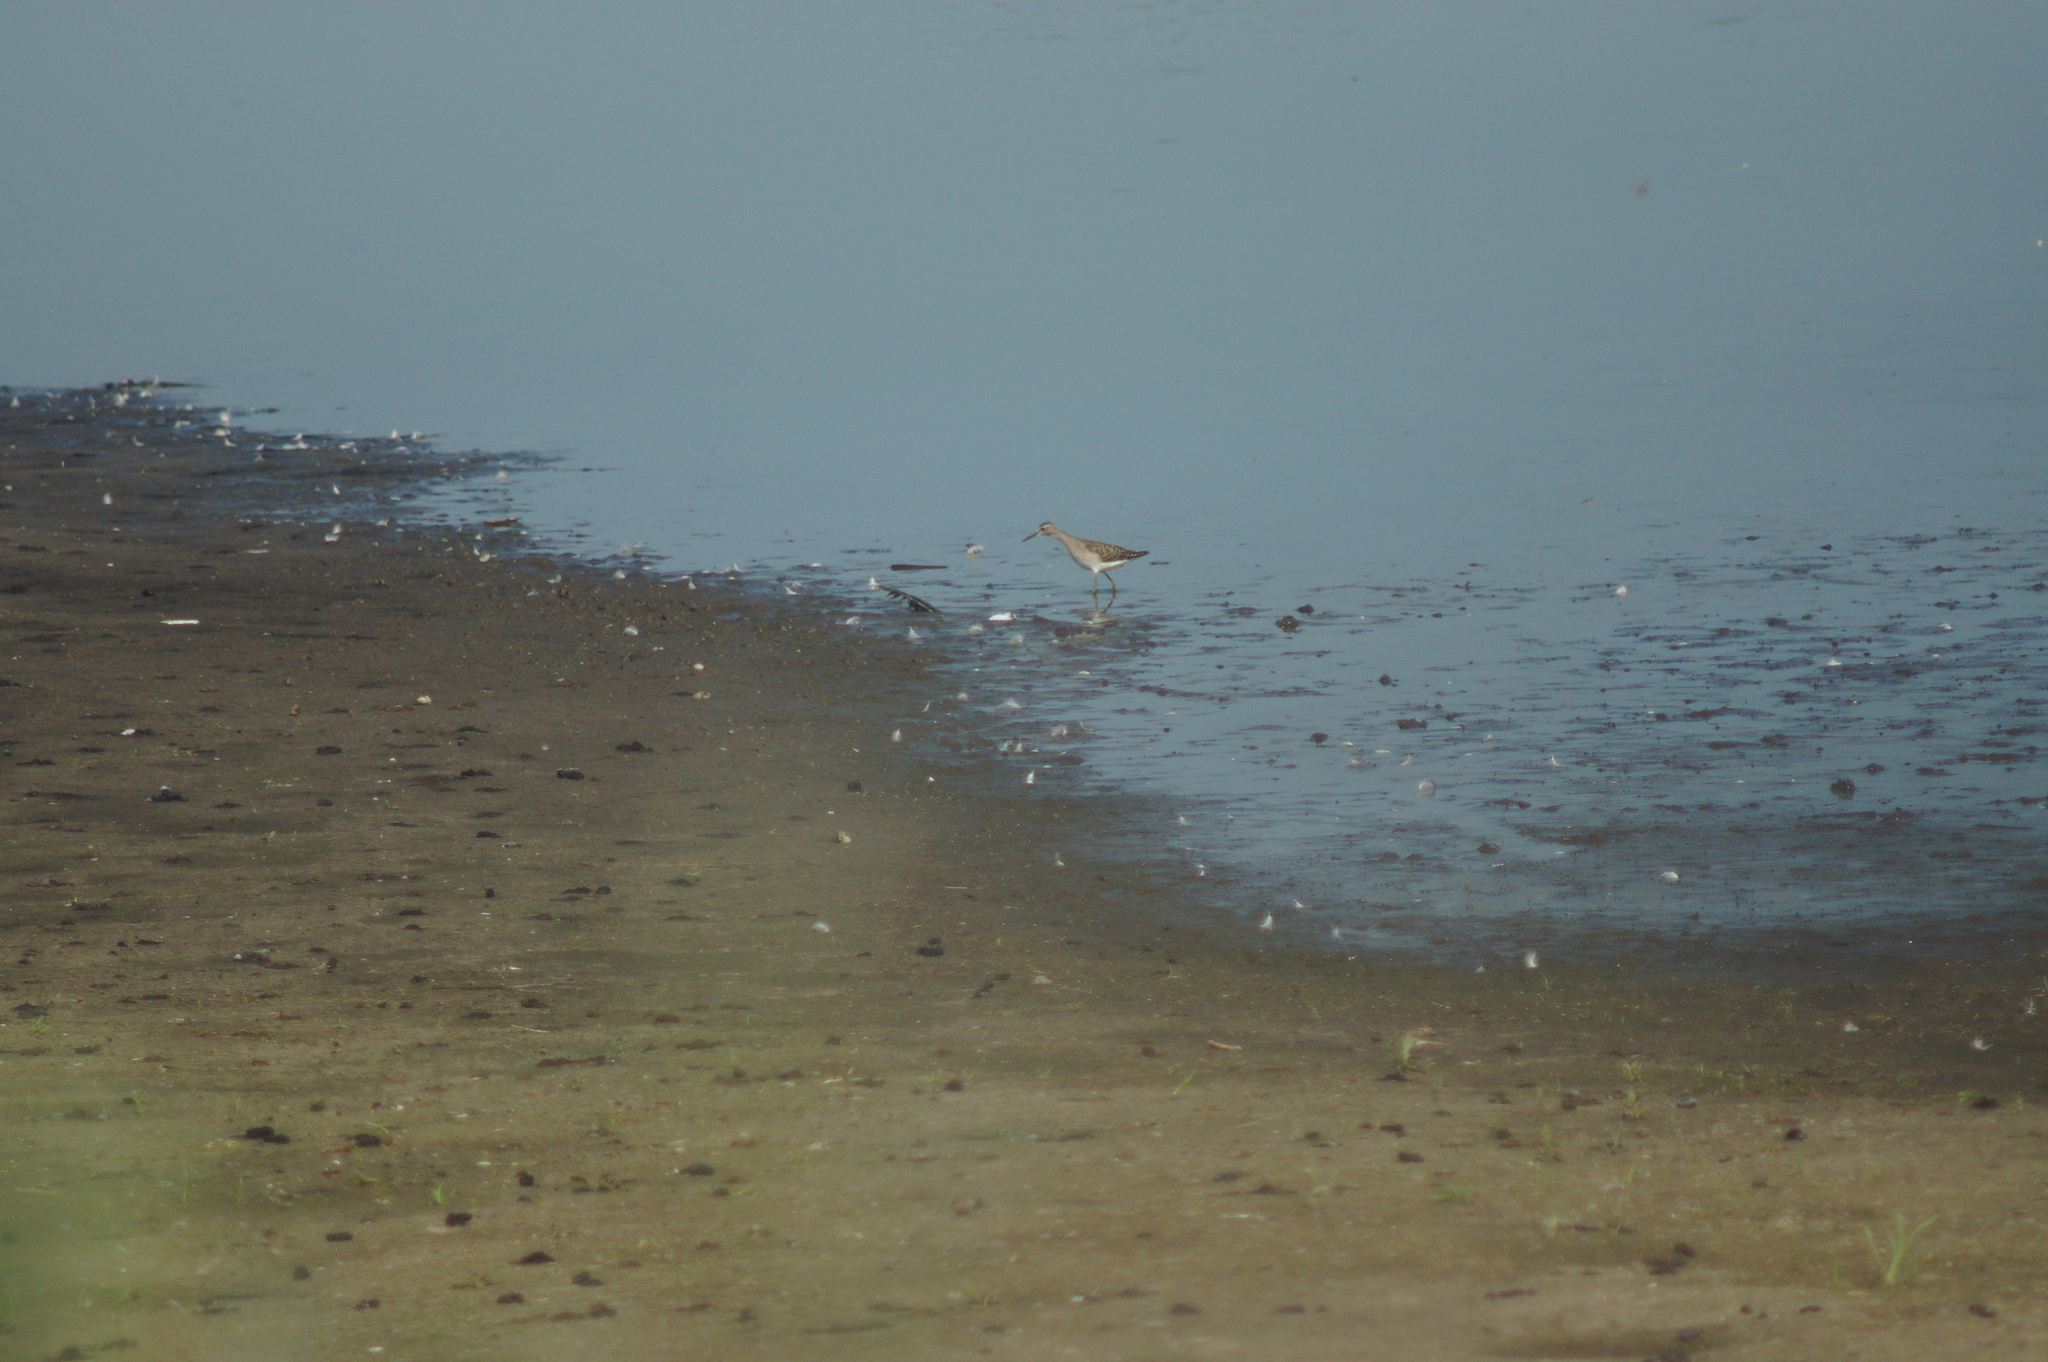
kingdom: Animalia
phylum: Chordata
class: Aves
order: Charadriiformes
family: Scolopacidae
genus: Tringa
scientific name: Tringa glareola
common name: Wood sandpiper
